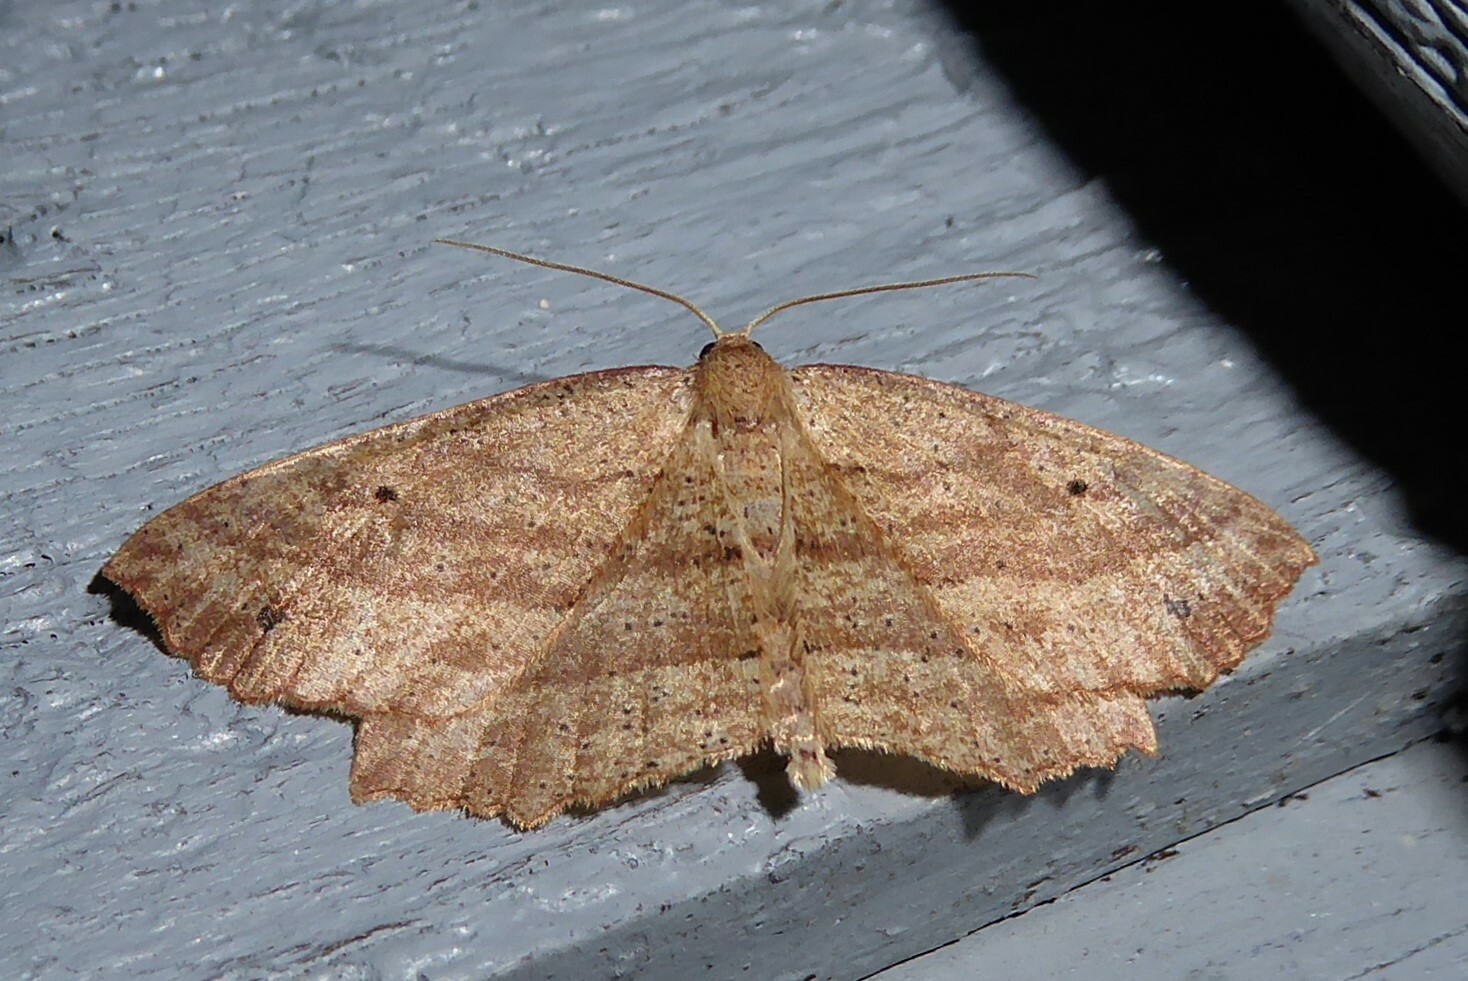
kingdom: Animalia
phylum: Arthropoda
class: Insecta
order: Lepidoptera
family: Geometridae
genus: Xyridacma
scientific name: Xyridacma veronicae
